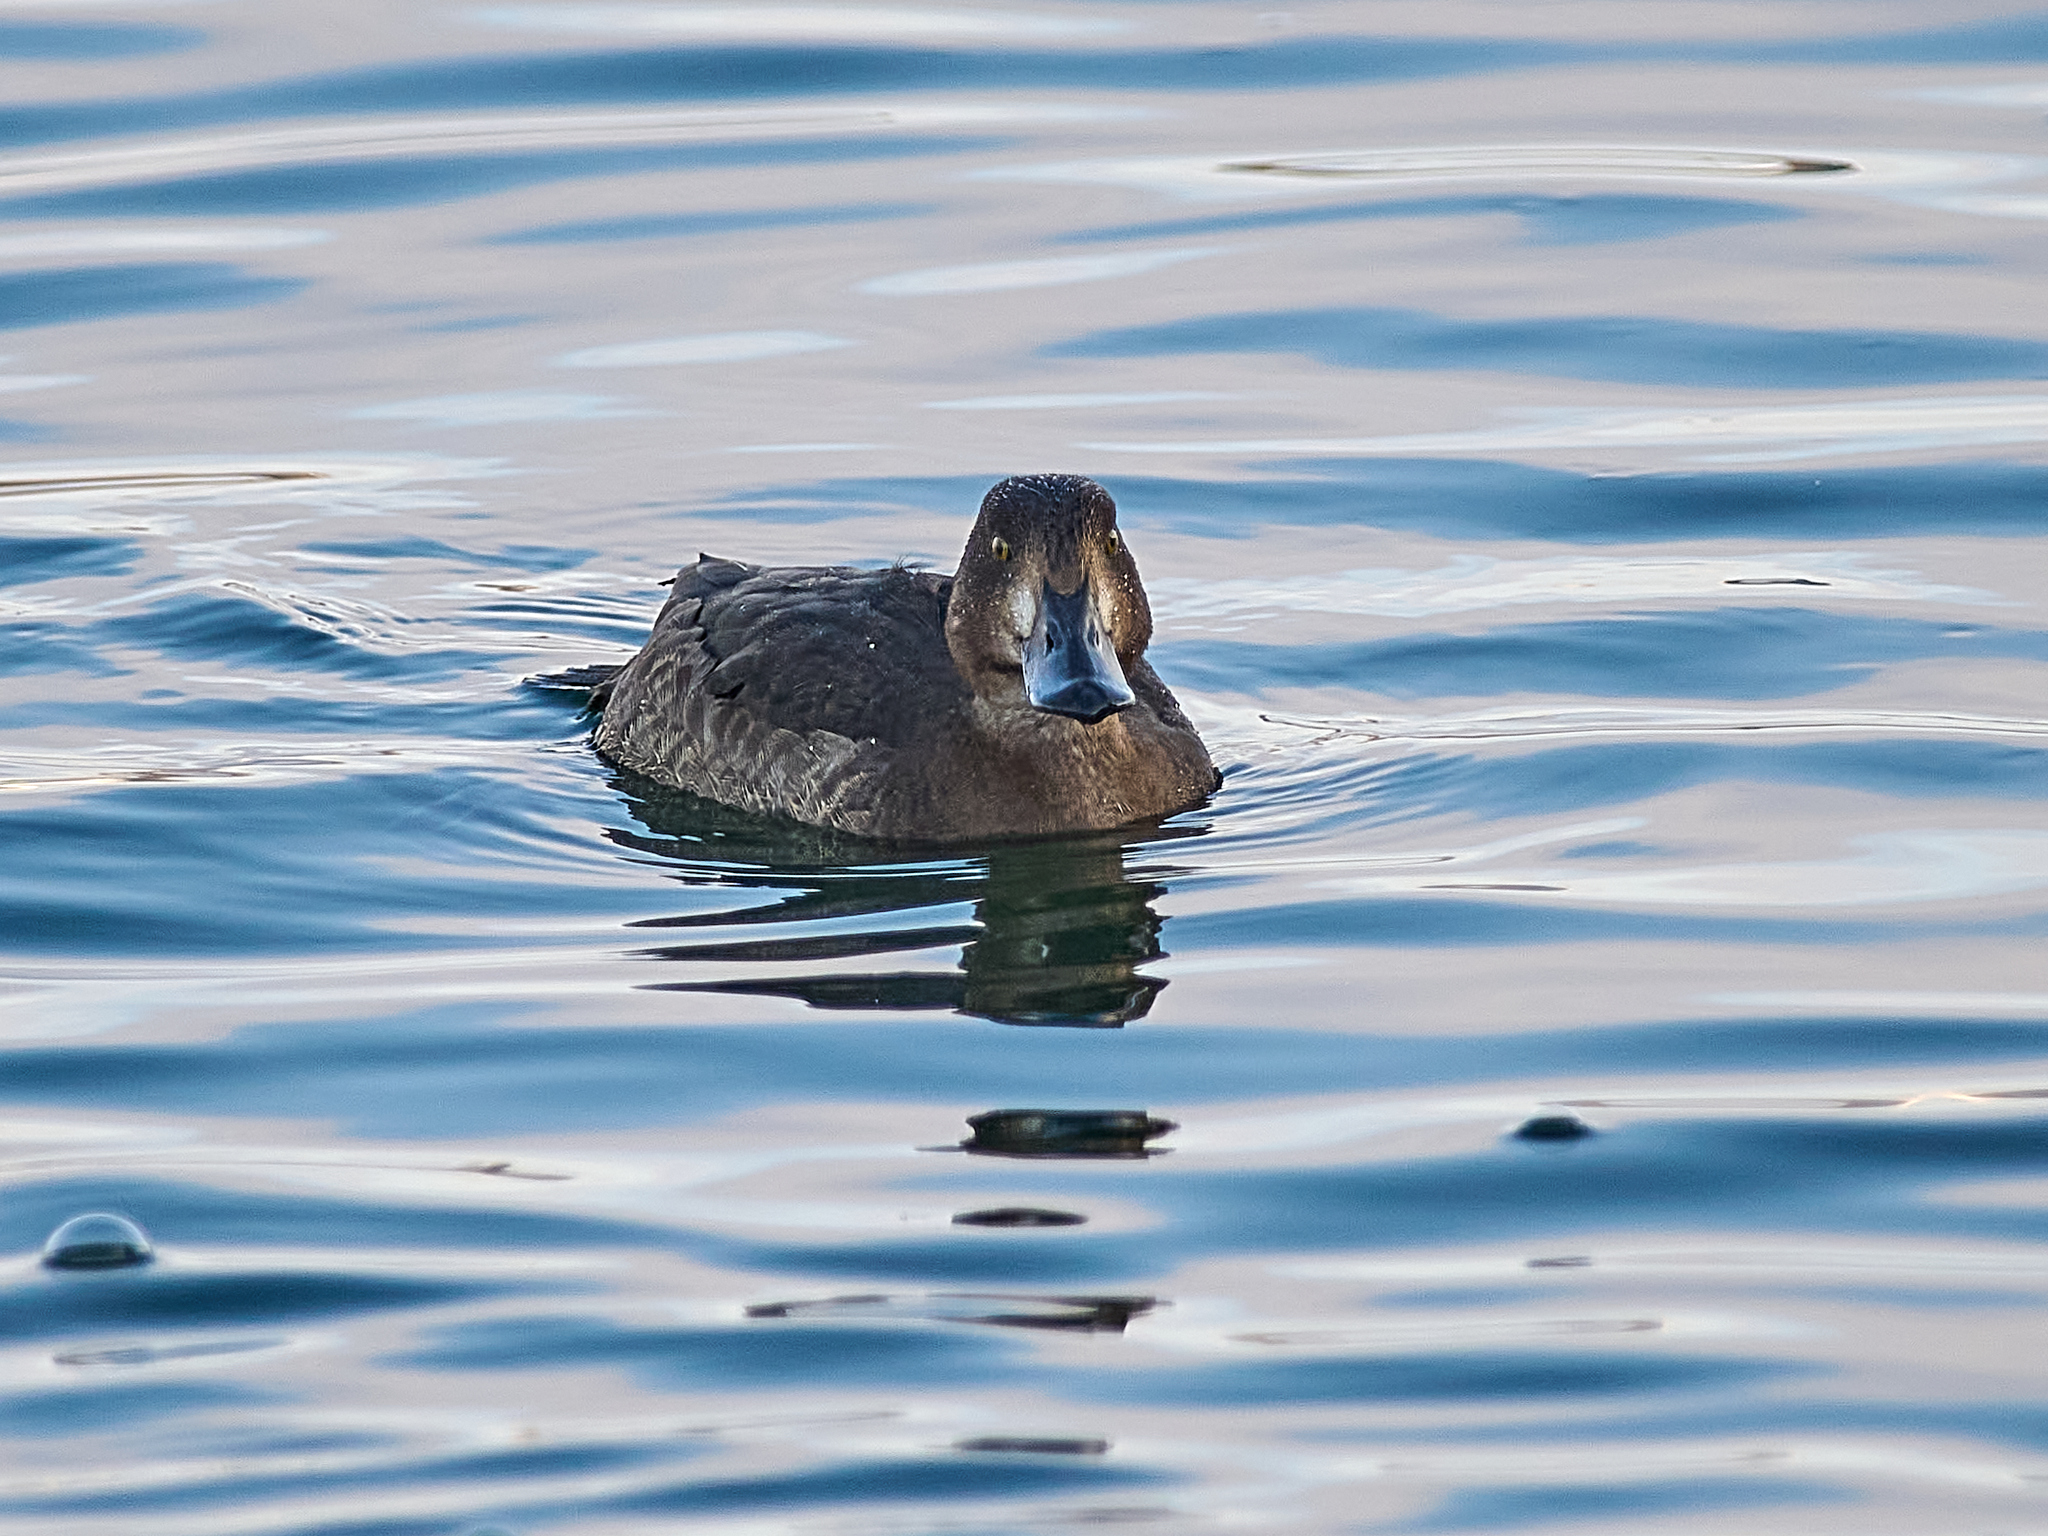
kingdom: Animalia
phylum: Chordata
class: Aves
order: Anseriformes
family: Anatidae
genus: Aythya
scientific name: Aythya fuligula
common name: Tufted duck
